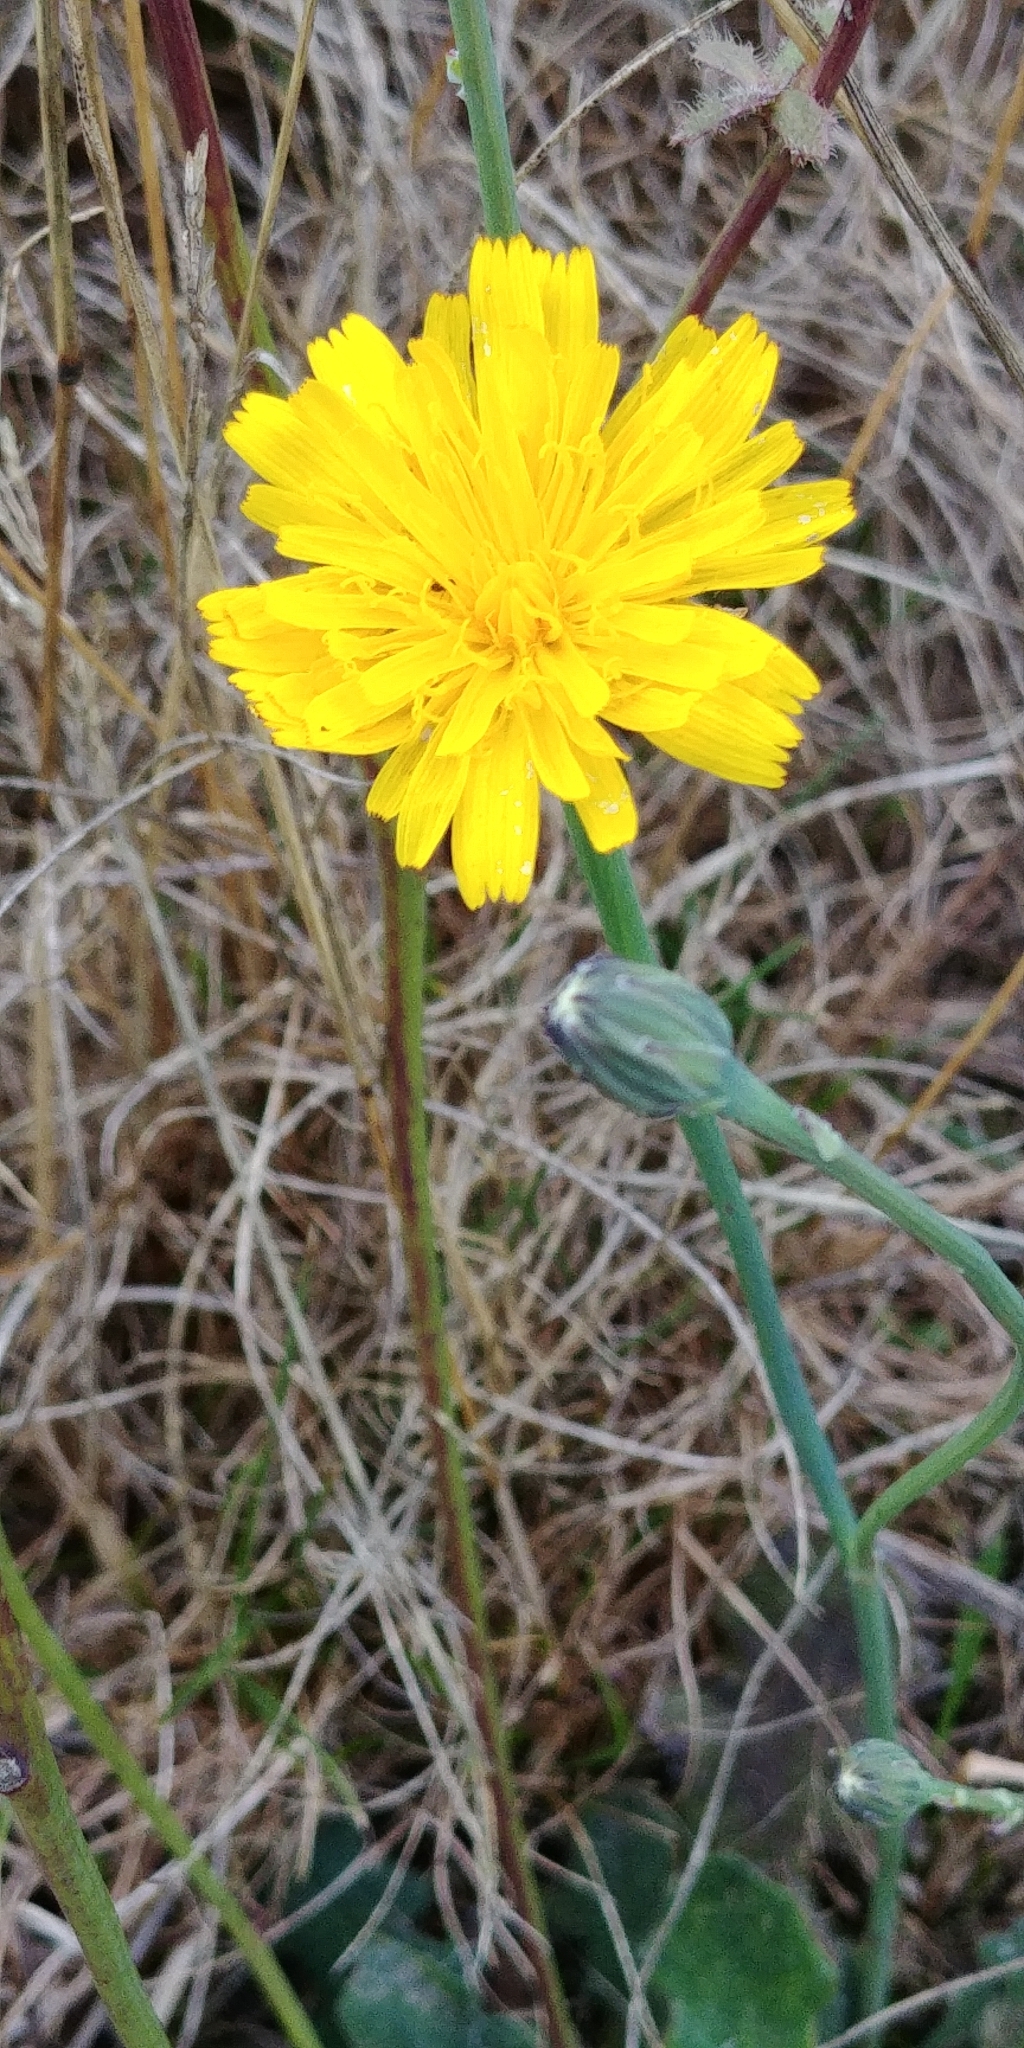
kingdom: Plantae
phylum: Tracheophyta
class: Magnoliopsida
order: Asterales
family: Asteraceae
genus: Hypochaeris
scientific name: Hypochaeris radicata
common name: Flatweed
